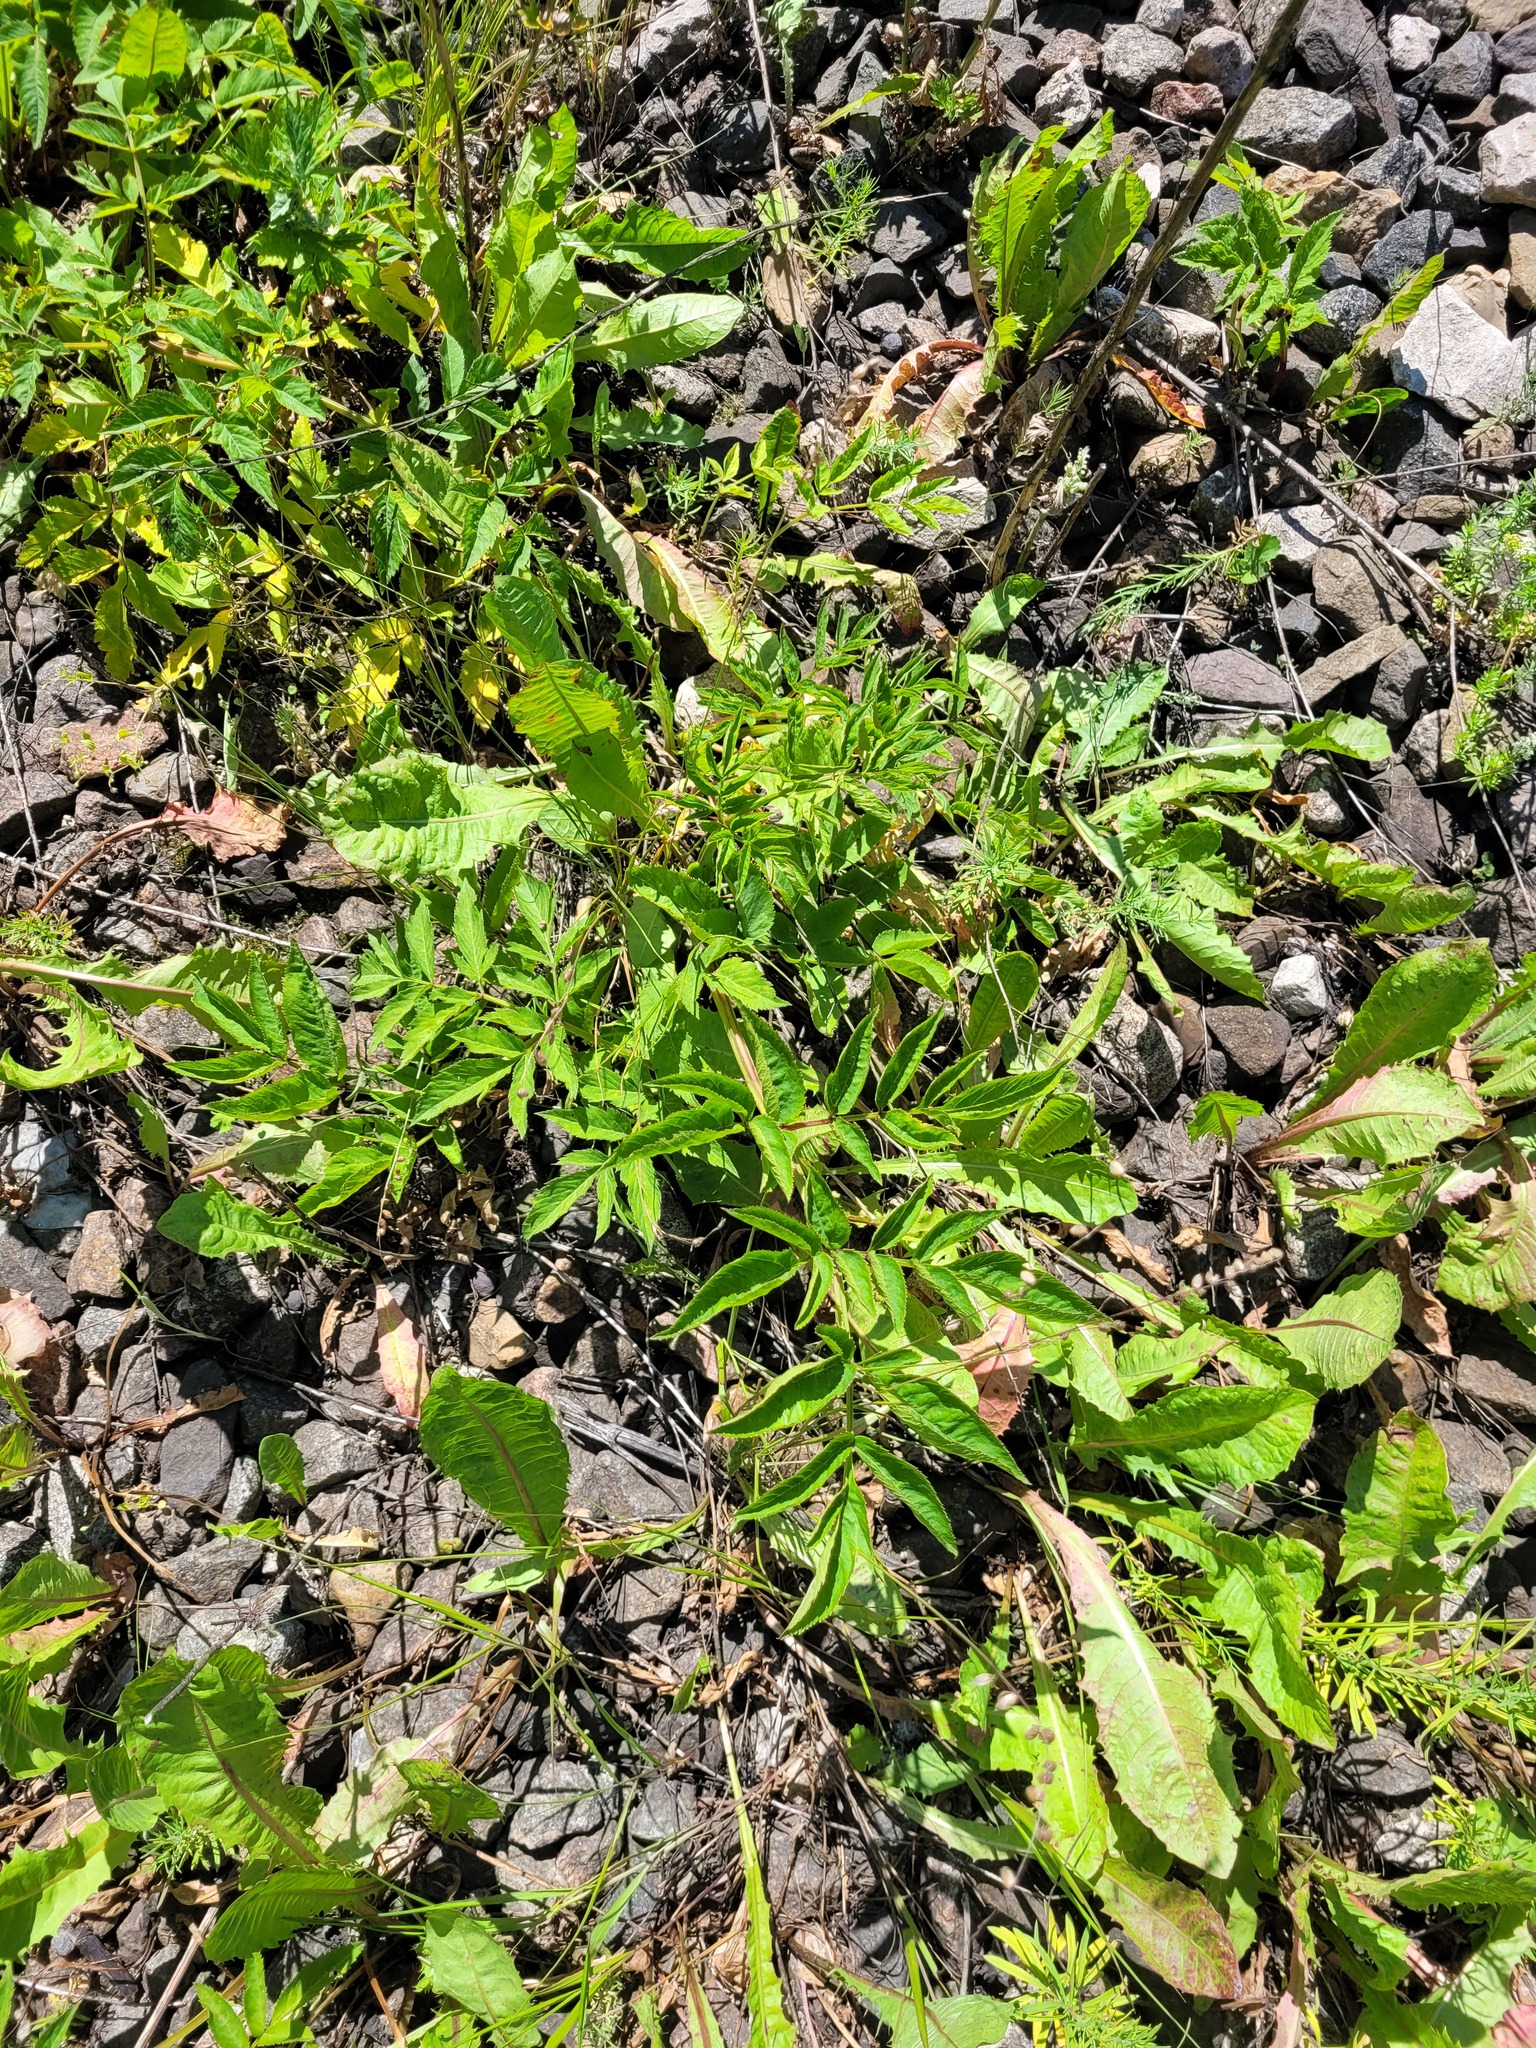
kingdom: Plantae
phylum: Tracheophyta
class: Magnoliopsida
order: Apiales
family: Apiaceae
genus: Angelica
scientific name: Angelica sylvestris
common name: Wild angelica
